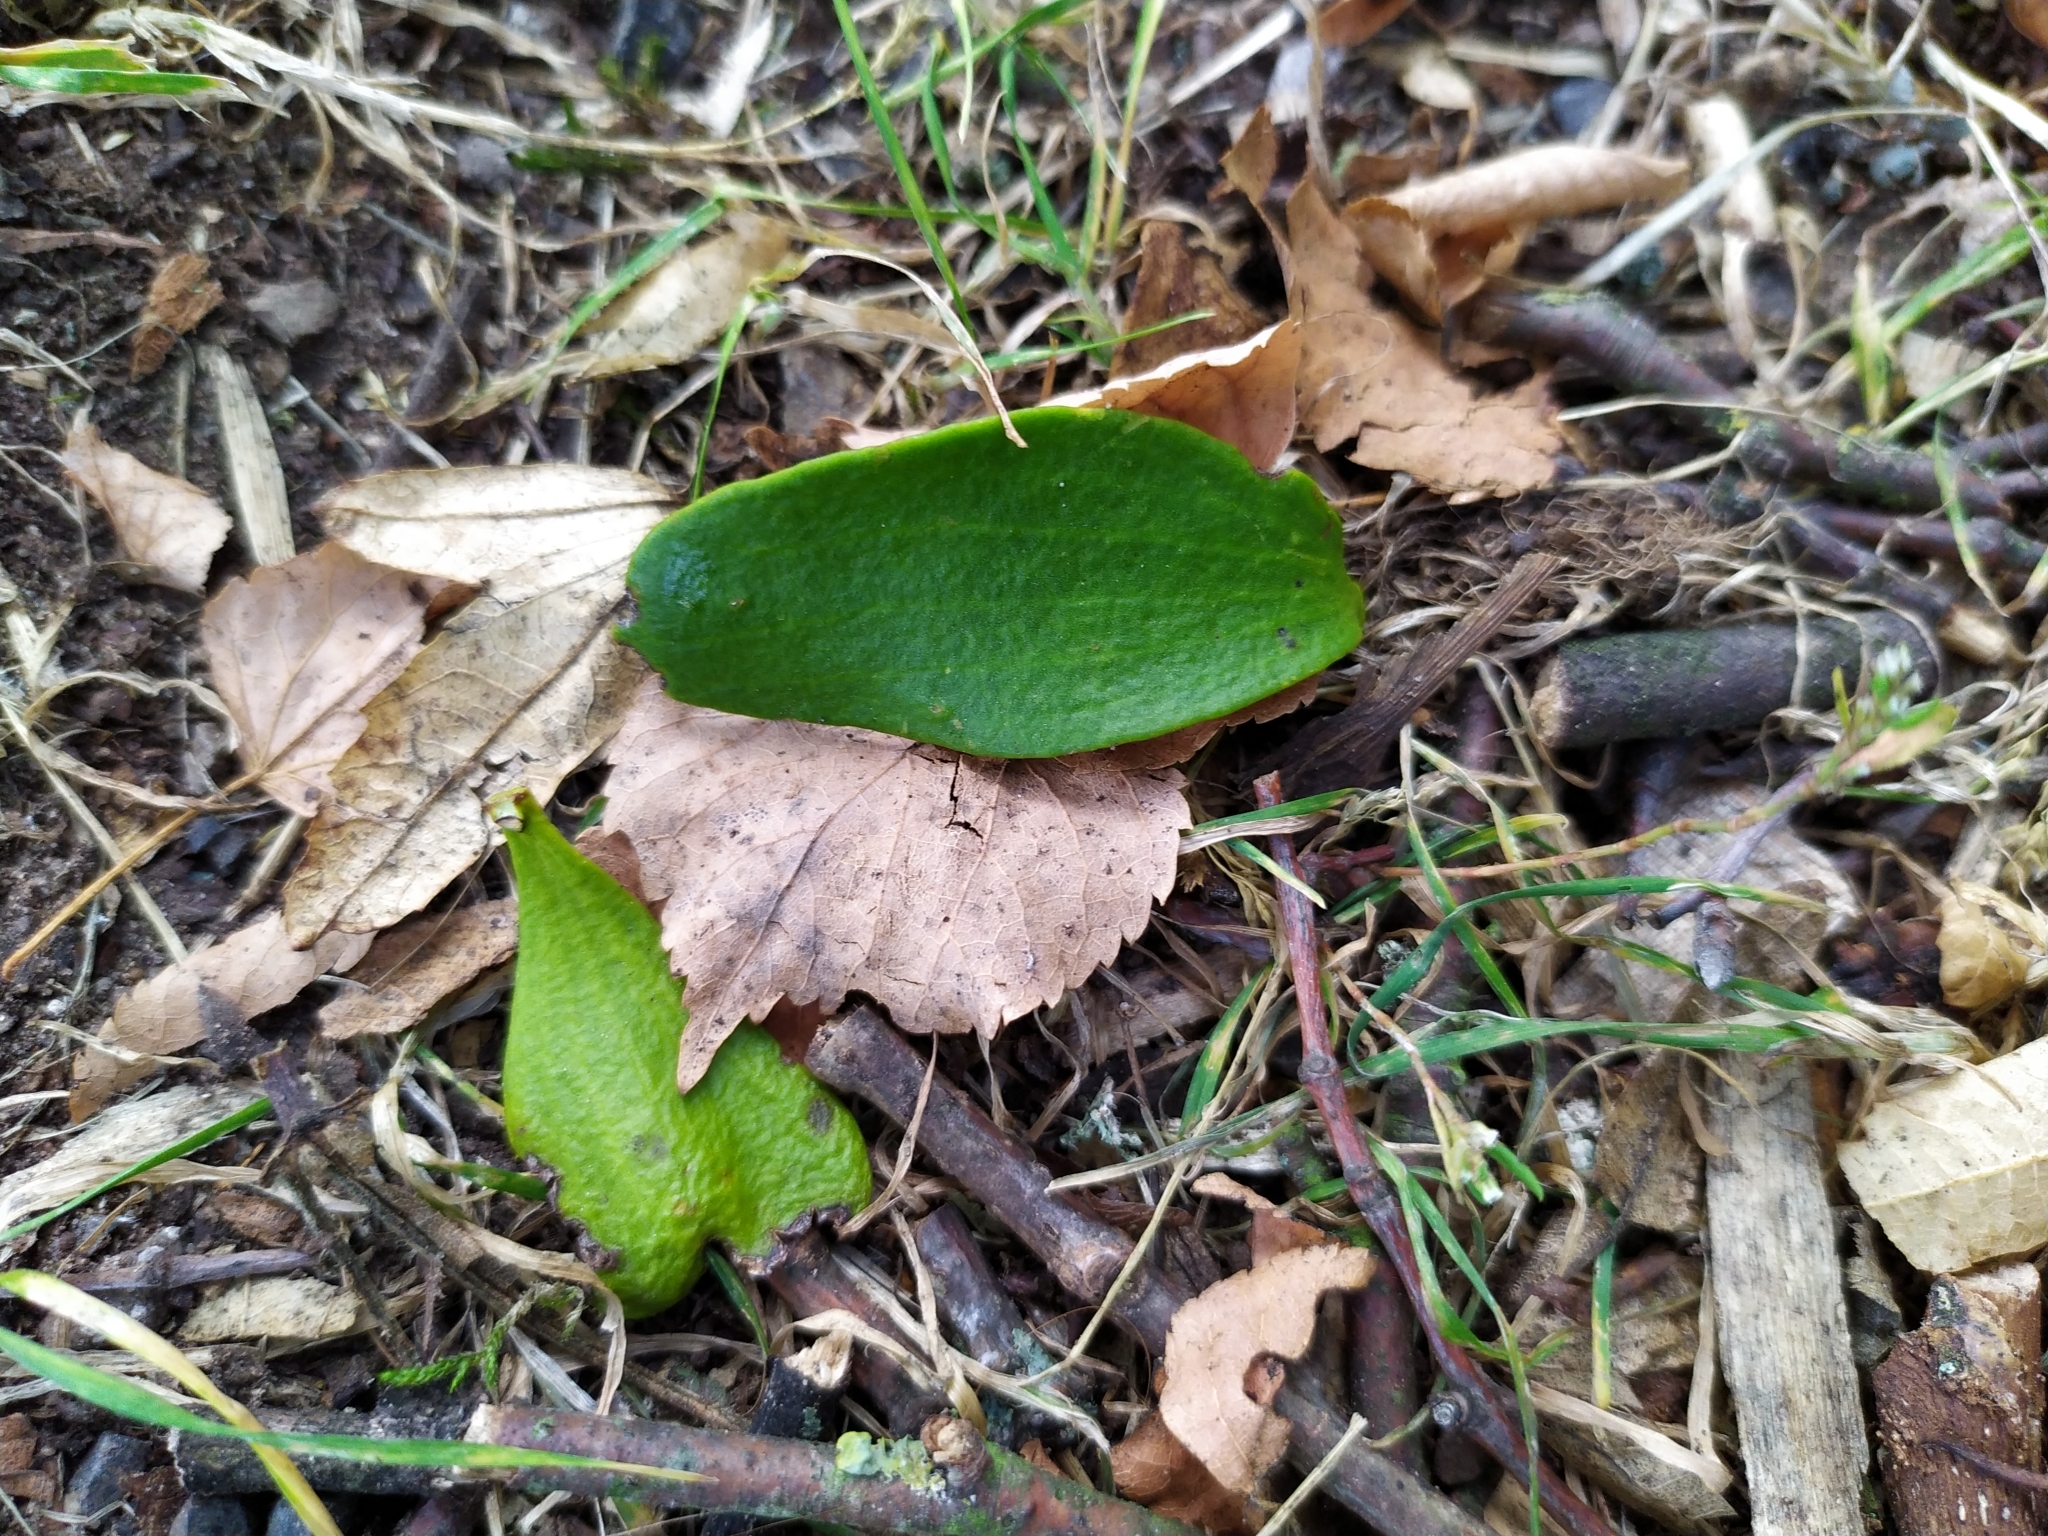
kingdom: Plantae
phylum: Tracheophyta
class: Magnoliopsida
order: Santalales
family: Viscaceae
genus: Viscum
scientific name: Viscum album
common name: Mistletoe
